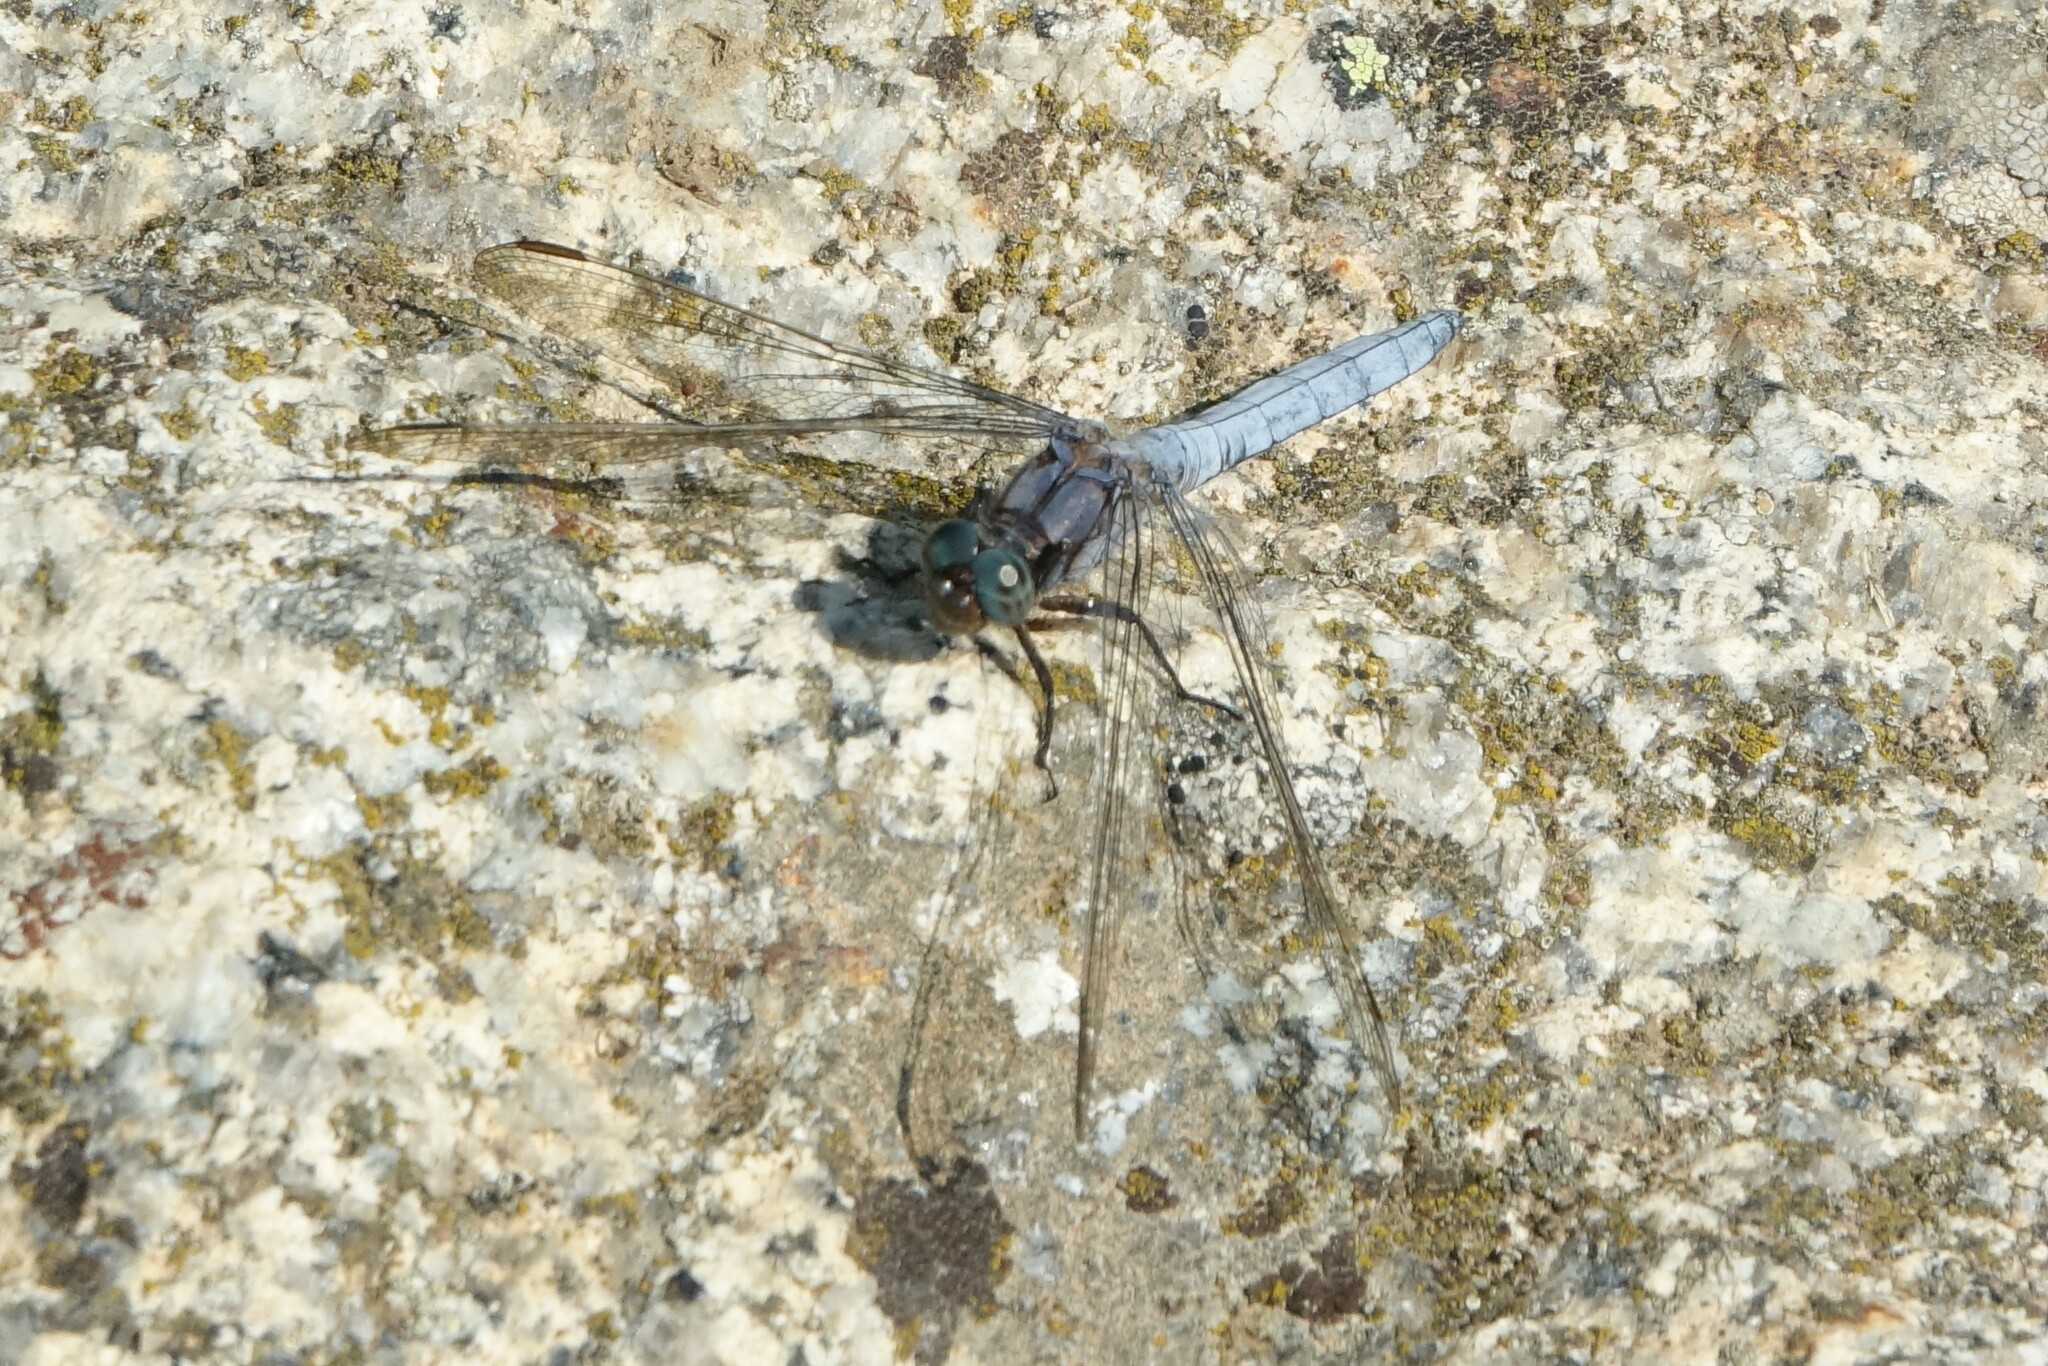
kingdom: Animalia
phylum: Arthropoda
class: Insecta
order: Odonata
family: Libellulidae
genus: Orthetrum
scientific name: Orthetrum coerulescens
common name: Keeled skimmer
